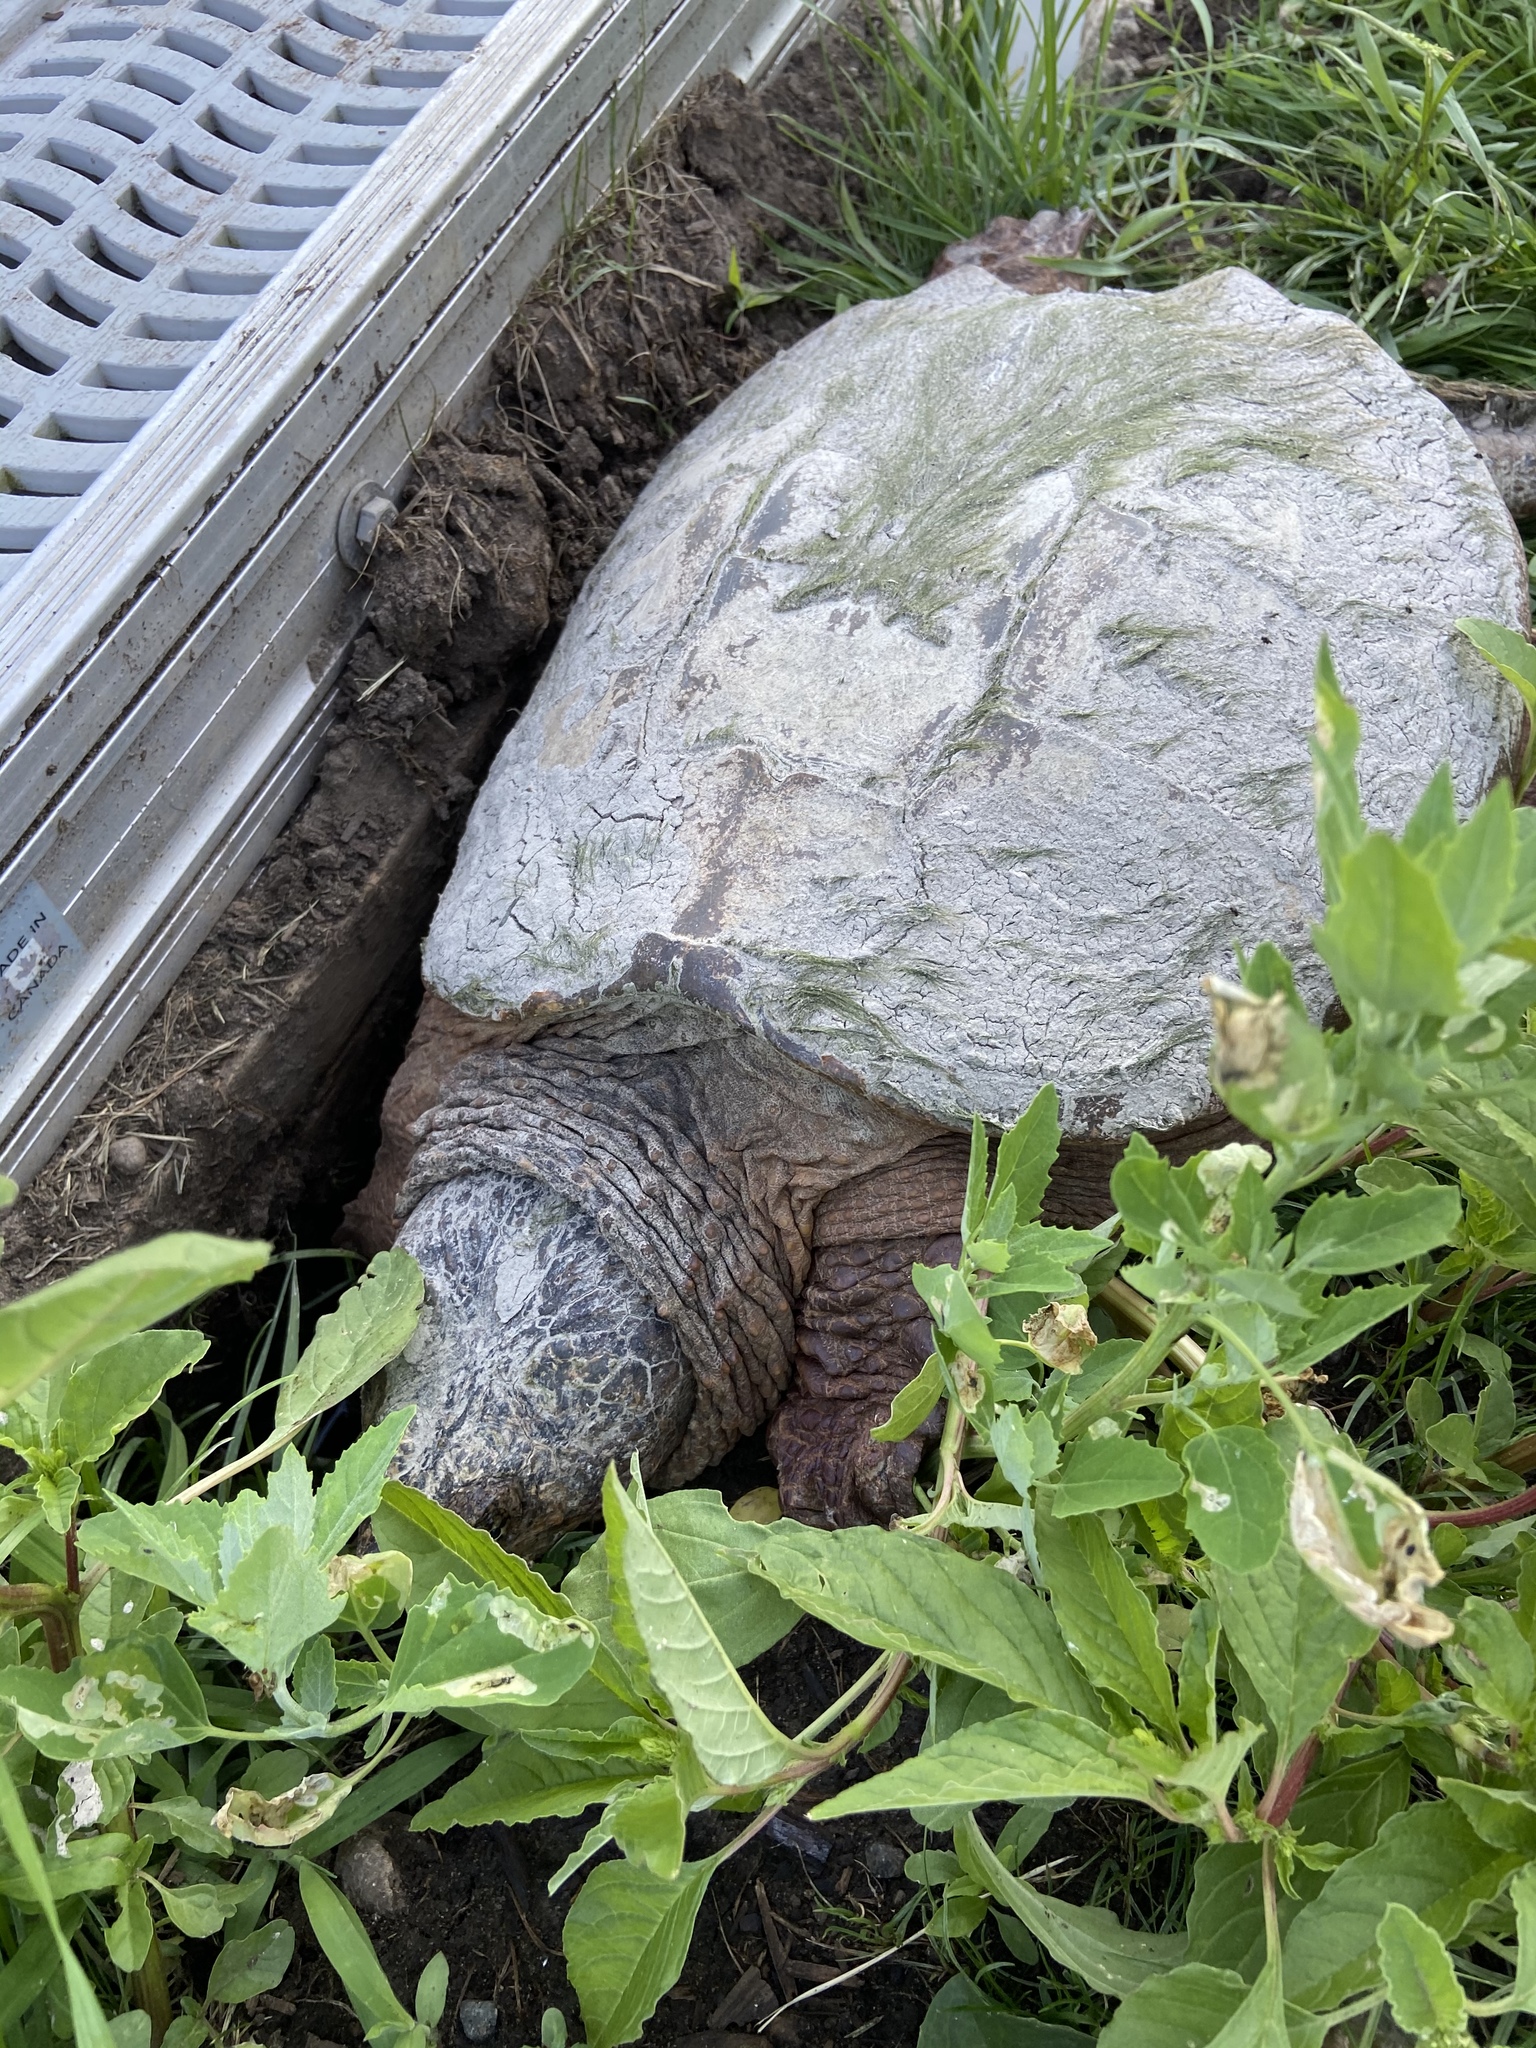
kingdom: Animalia
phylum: Chordata
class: Testudines
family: Chelydridae
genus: Chelydra
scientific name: Chelydra serpentina
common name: Common snapping turtle
